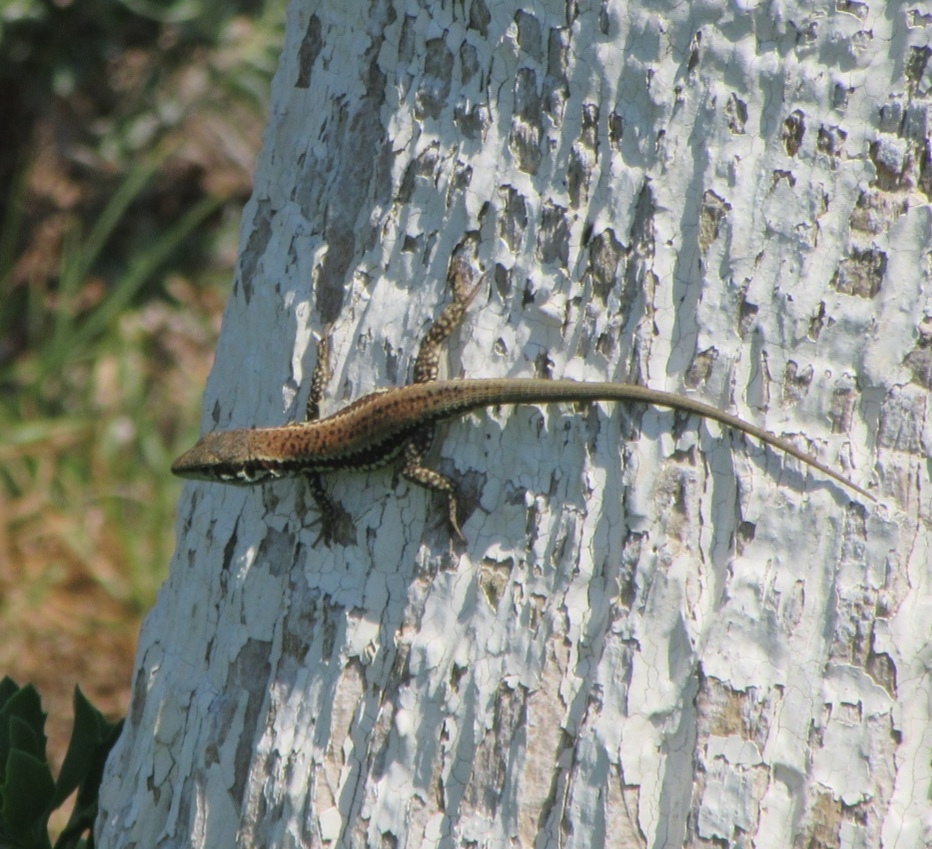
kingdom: Animalia
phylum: Chordata
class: Squamata
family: Lacertidae
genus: Phoenicolacerta
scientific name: Phoenicolacerta troodica
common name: Troodos wall lizard
